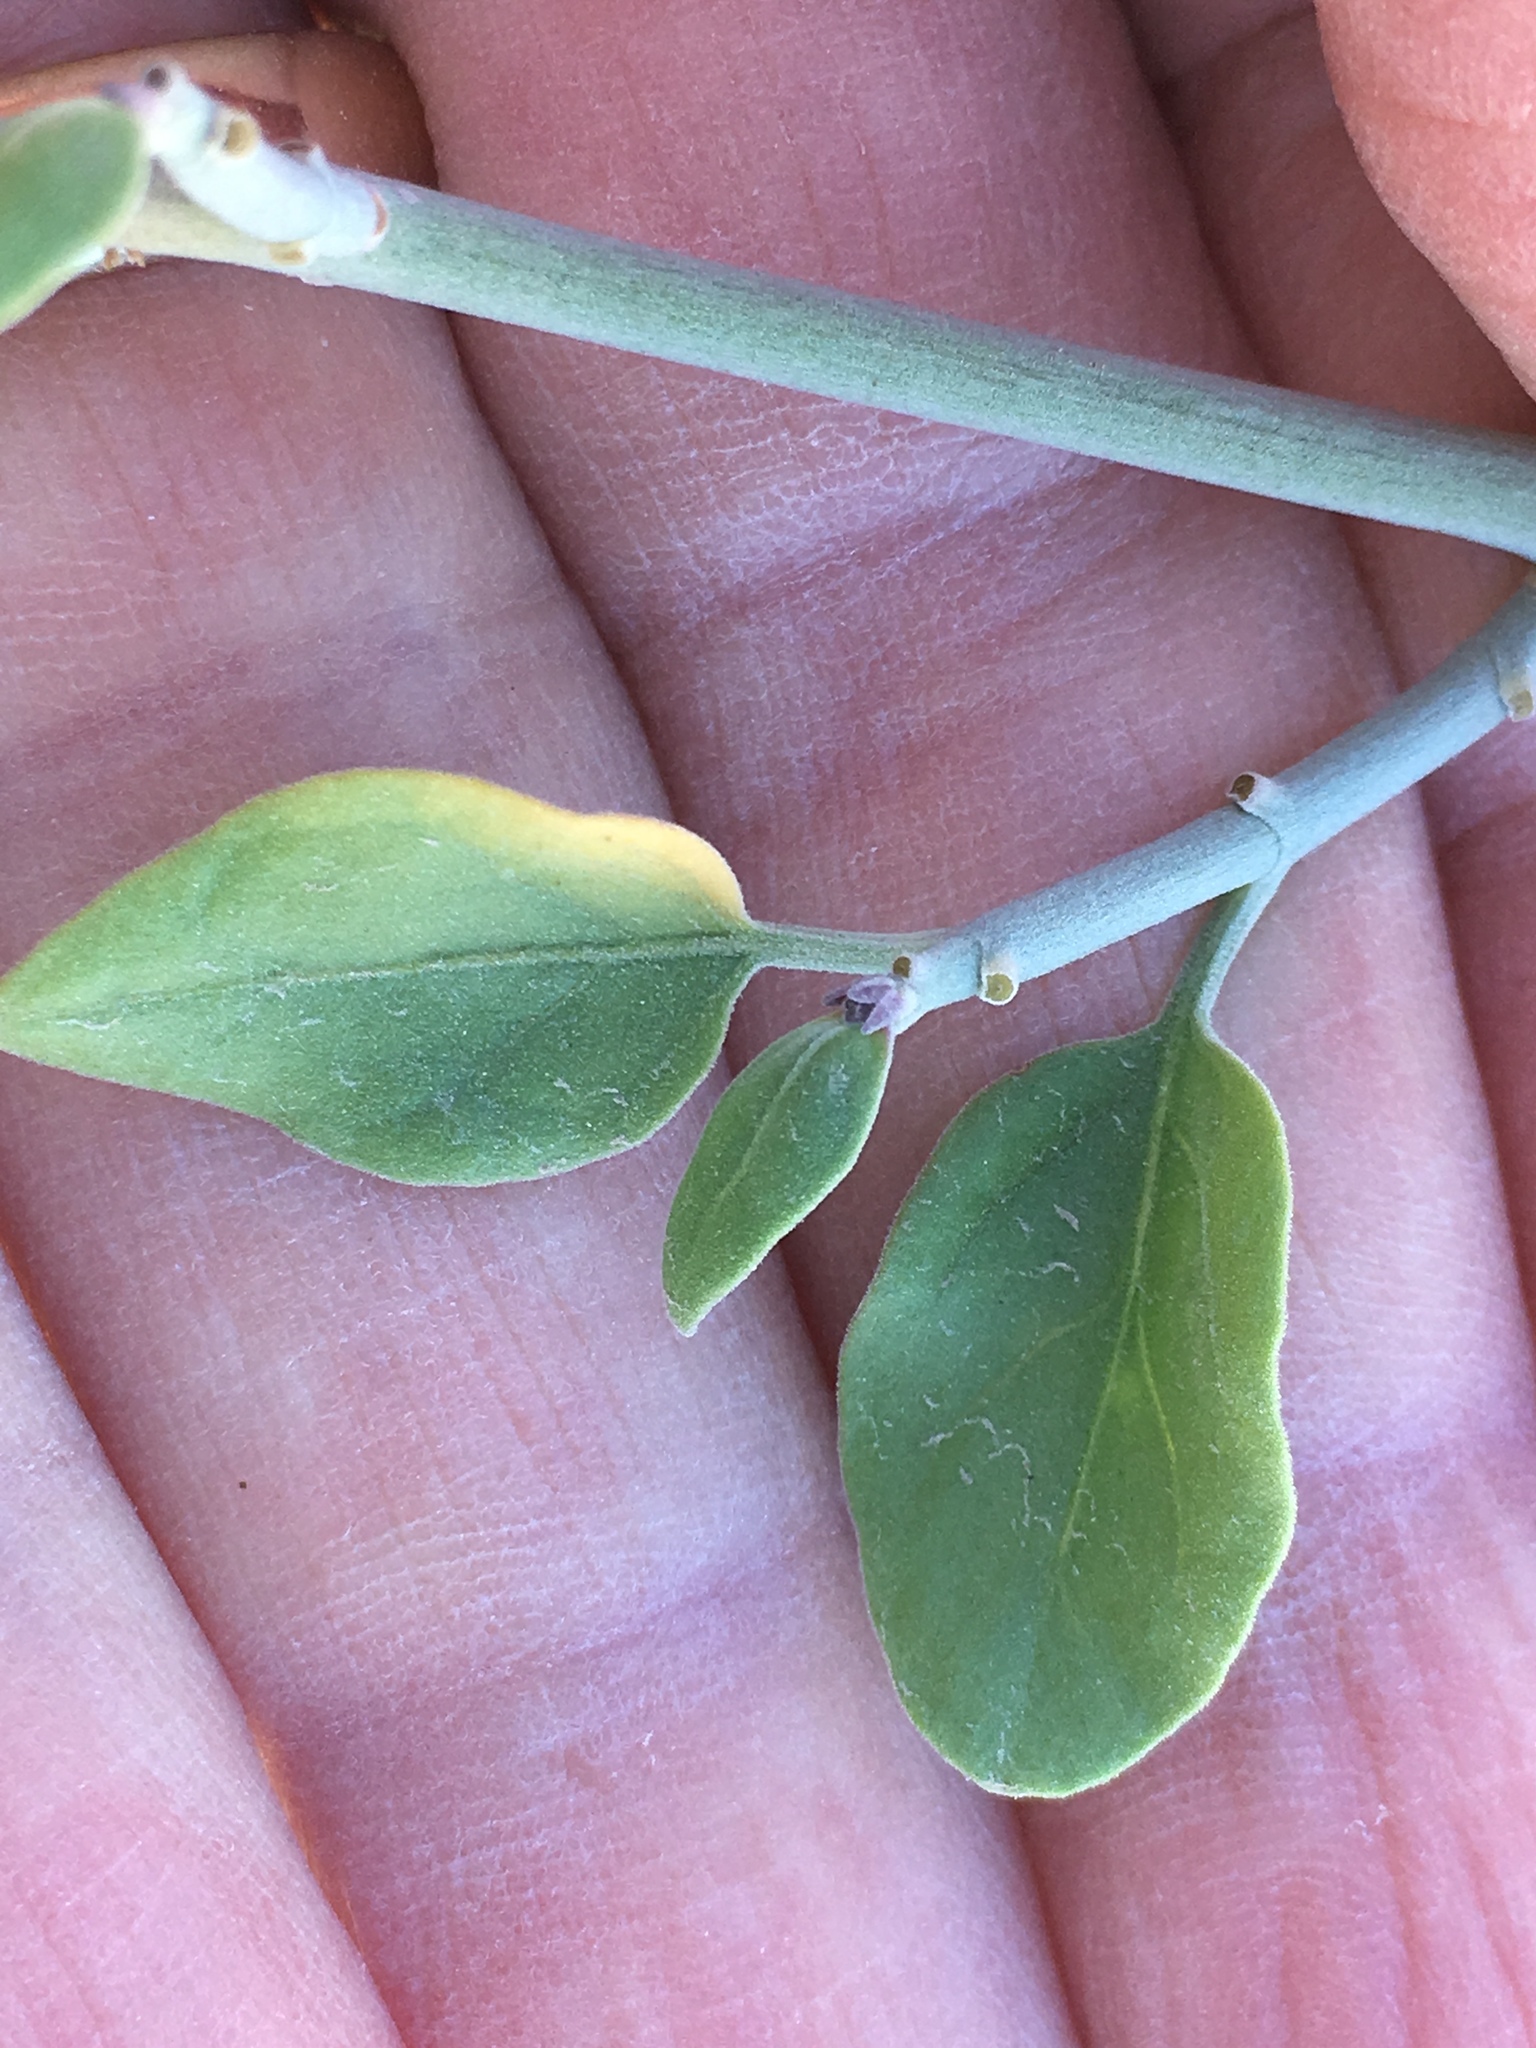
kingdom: Plantae
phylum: Tracheophyta
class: Magnoliopsida
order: Lamiales
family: Acanthaceae
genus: Justicia
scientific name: Justicia californica
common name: Chuparosa-honeysuckle
